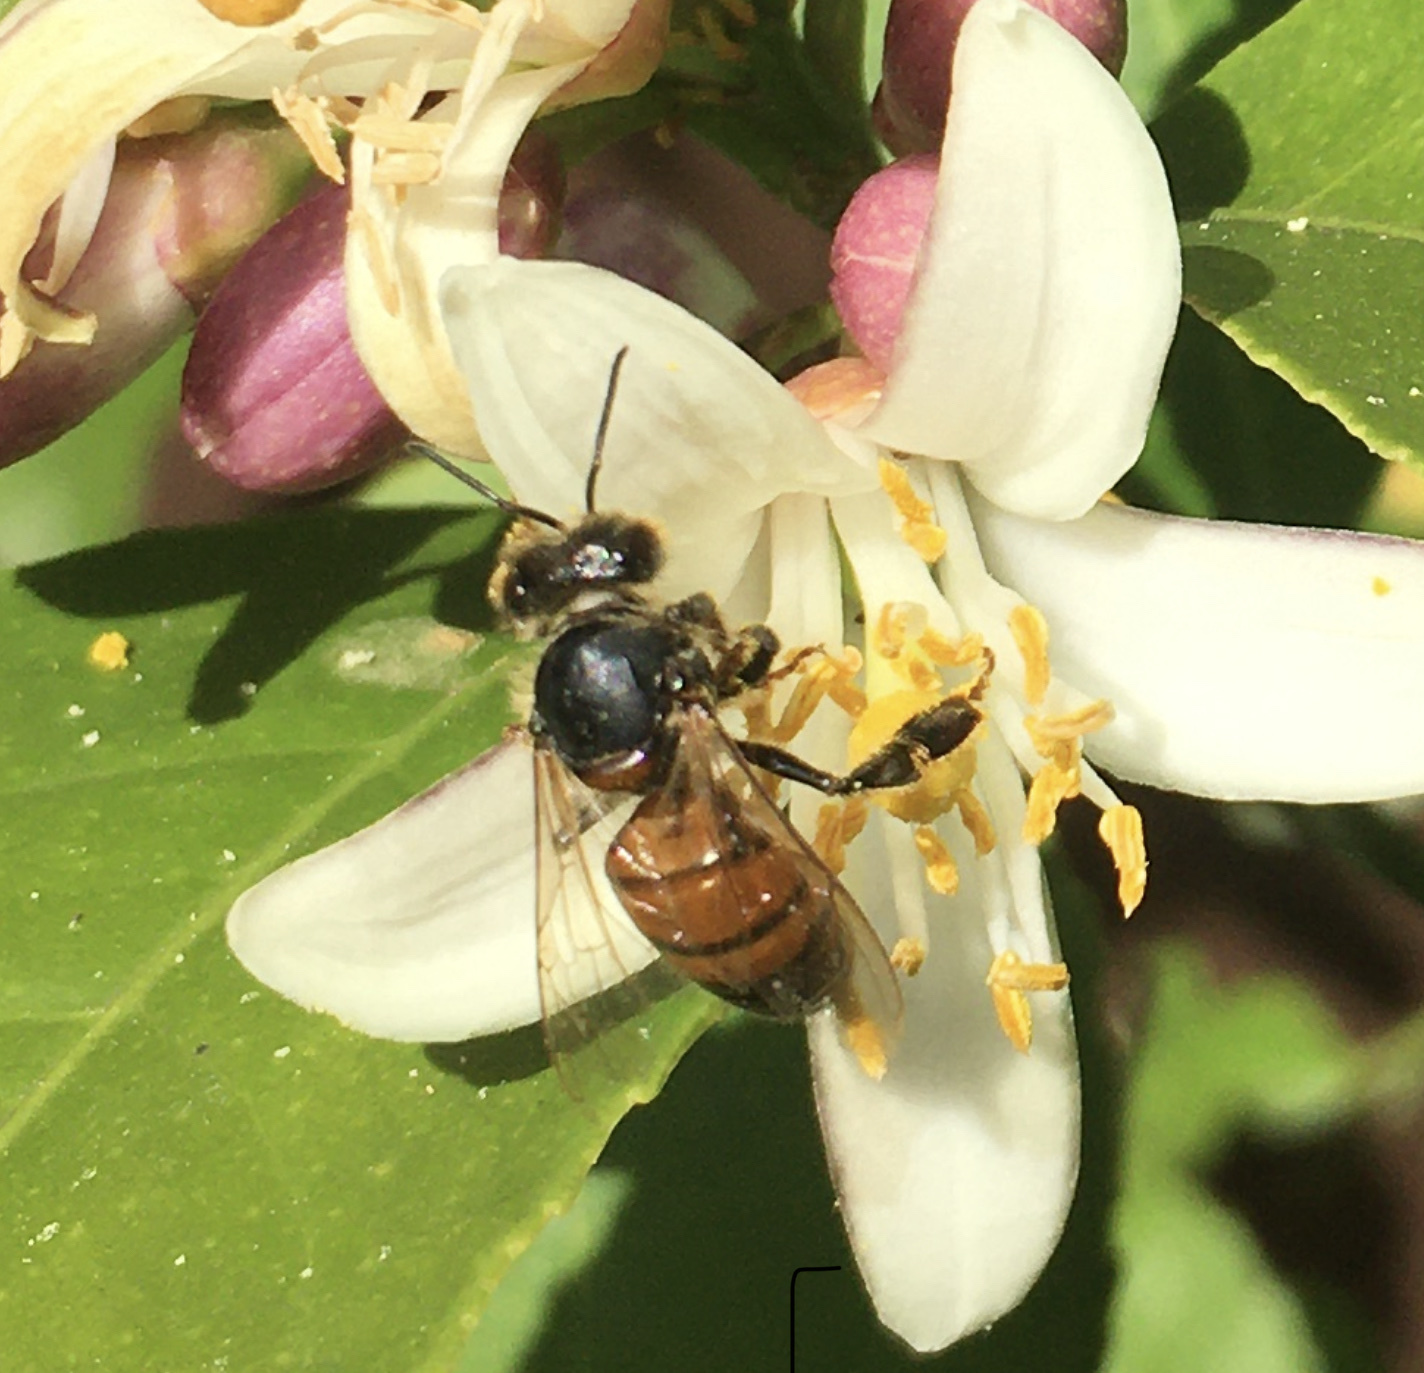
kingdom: Animalia
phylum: Arthropoda
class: Insecta
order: Hymenoptera
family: Apidae
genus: Apis
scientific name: Apis mellifera
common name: Honey bee
